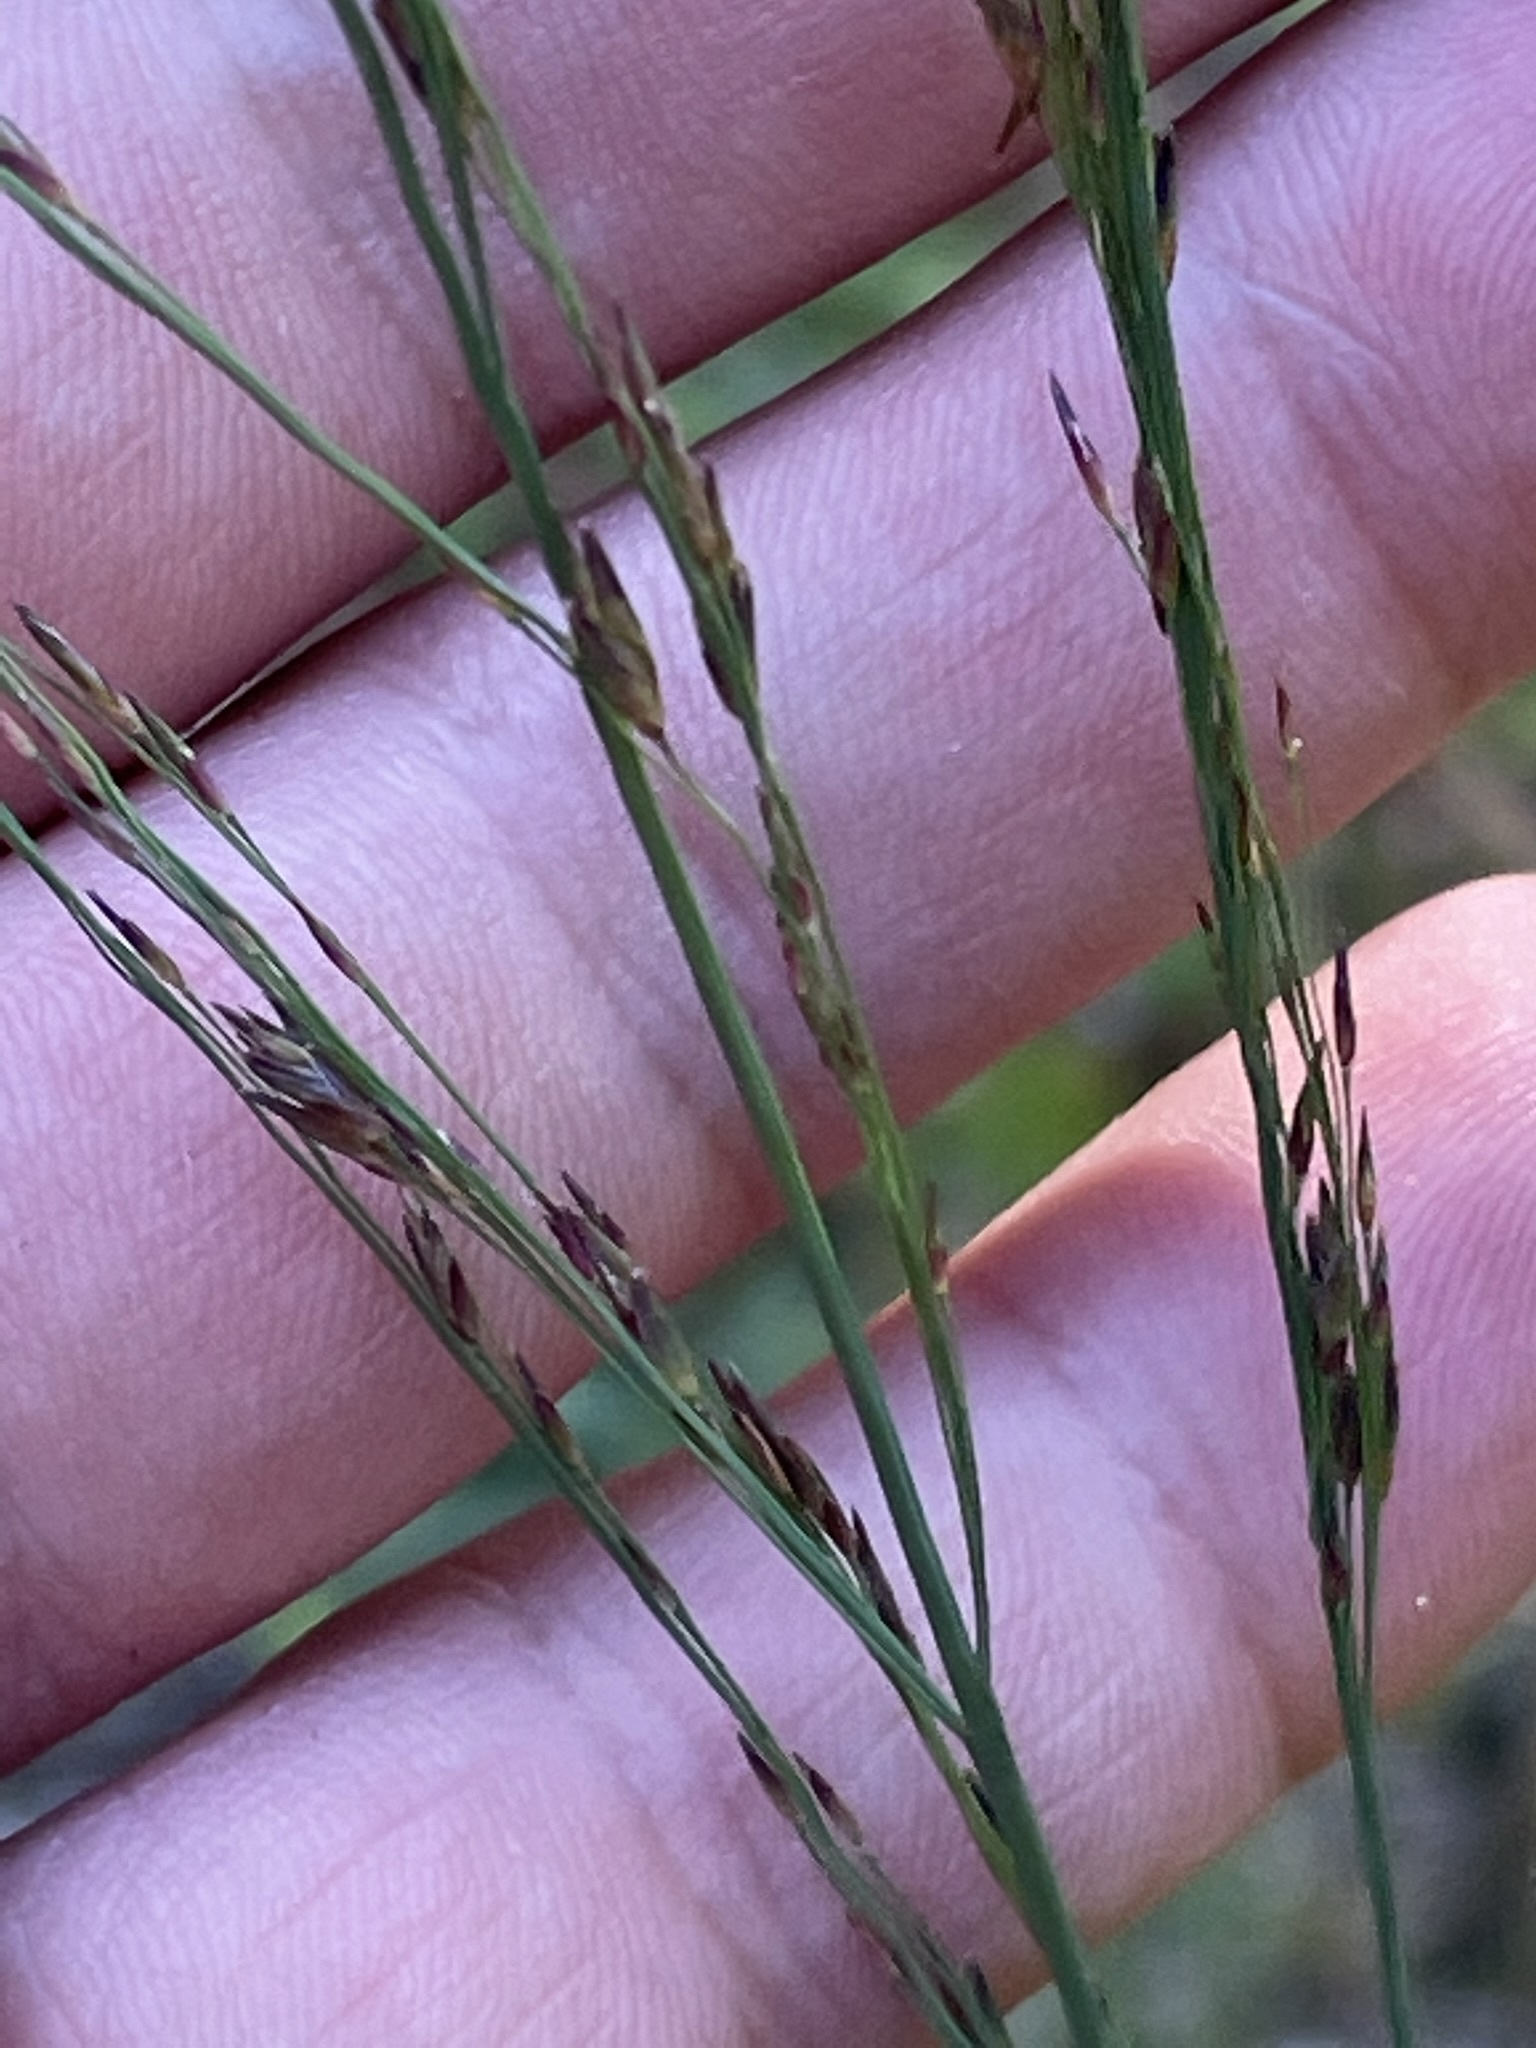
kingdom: Plantae
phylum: Tracheophyta
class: Liliopsida
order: Poales
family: Poaceae
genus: Molinia
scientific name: Molinia caerulea
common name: Purple moor-grass
